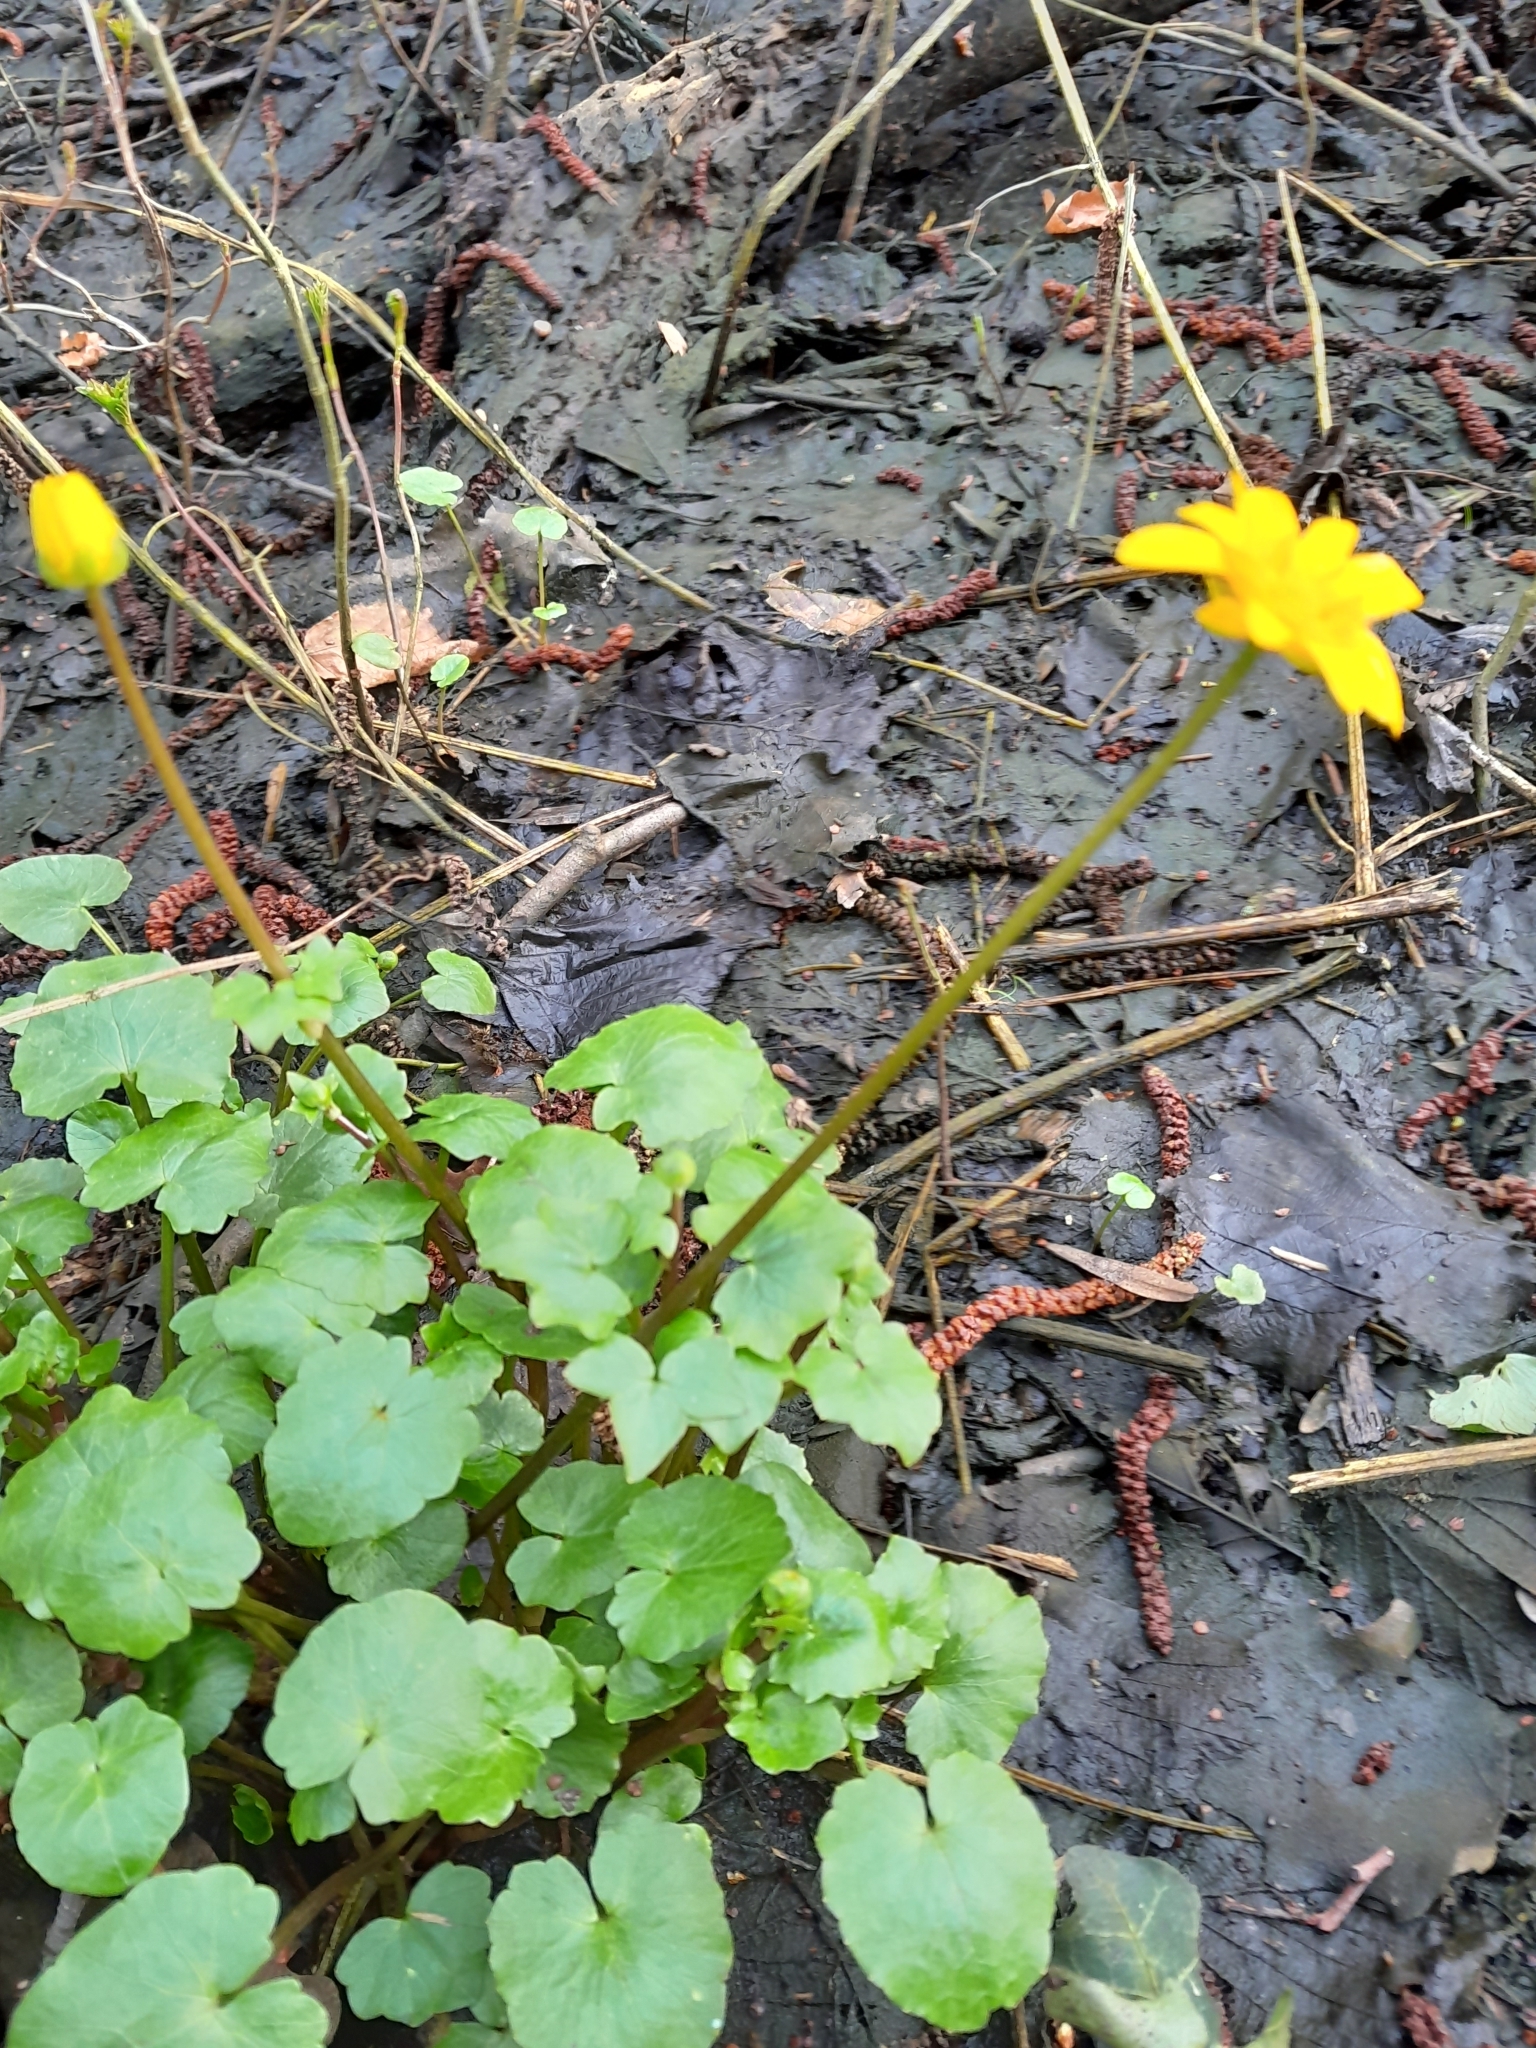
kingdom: Plantae
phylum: Tracheophyta
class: Magnoliopsida
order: Ranunculales
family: Ranunculaceae
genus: Ficaria
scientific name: Ficaria verna
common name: Lesser celandine
